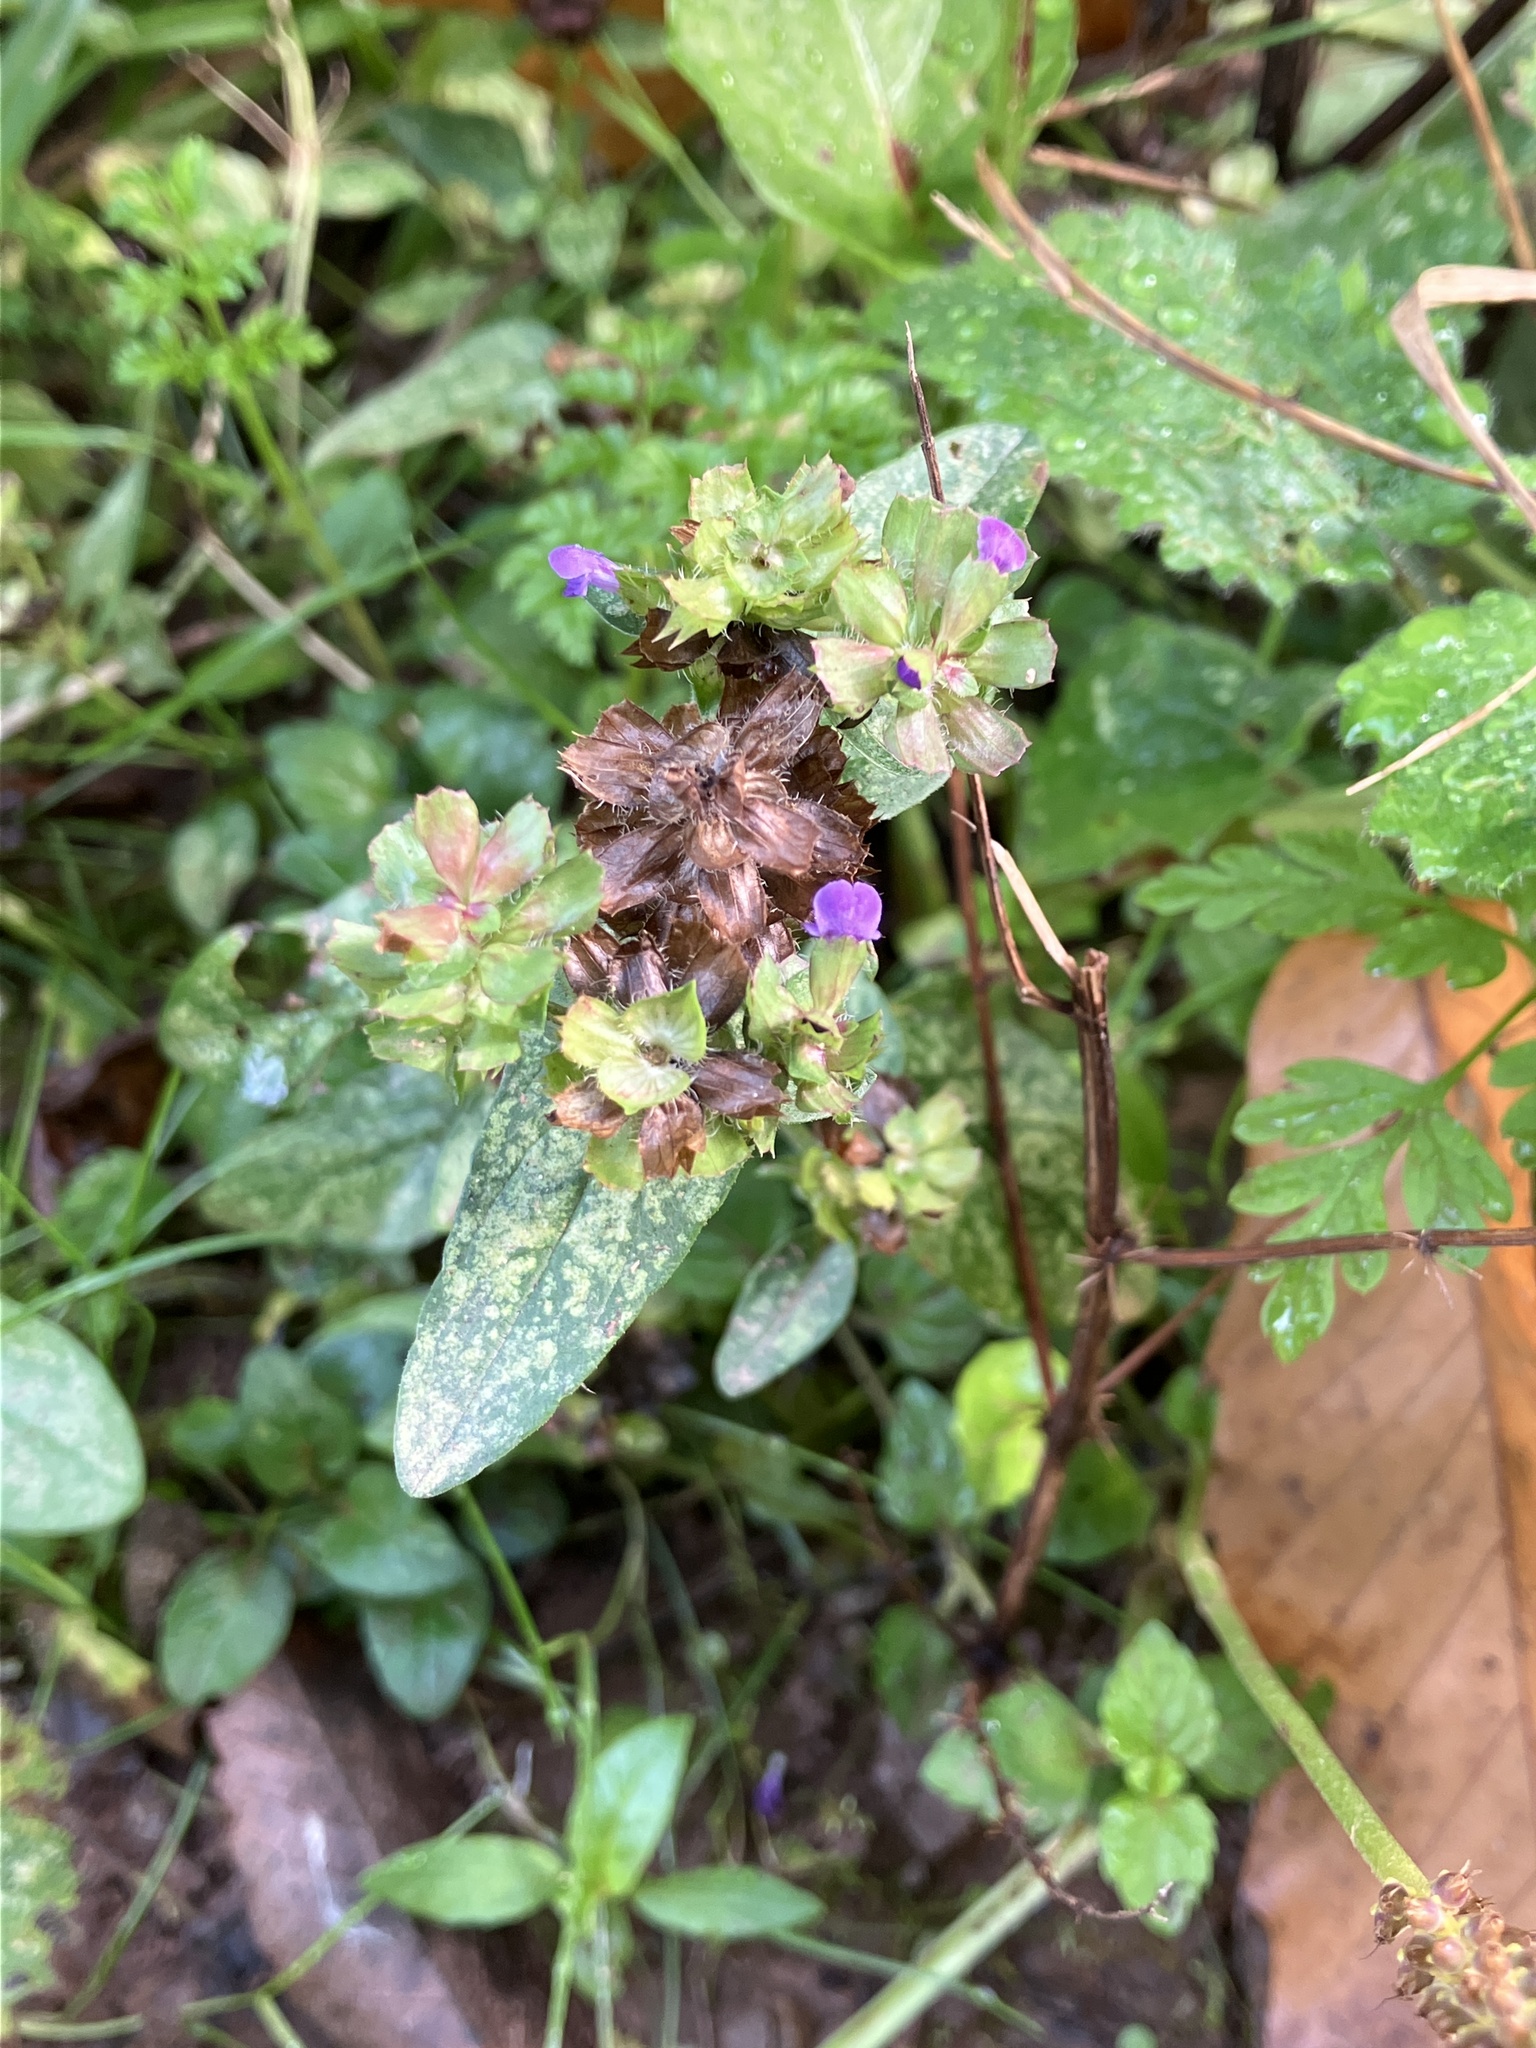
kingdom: Plantae
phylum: Tracheophyta
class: Magnoliopsida
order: Lamiales
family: Lamiaceae
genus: Prunella
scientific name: Prunella vulgaris
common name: Heal-all
